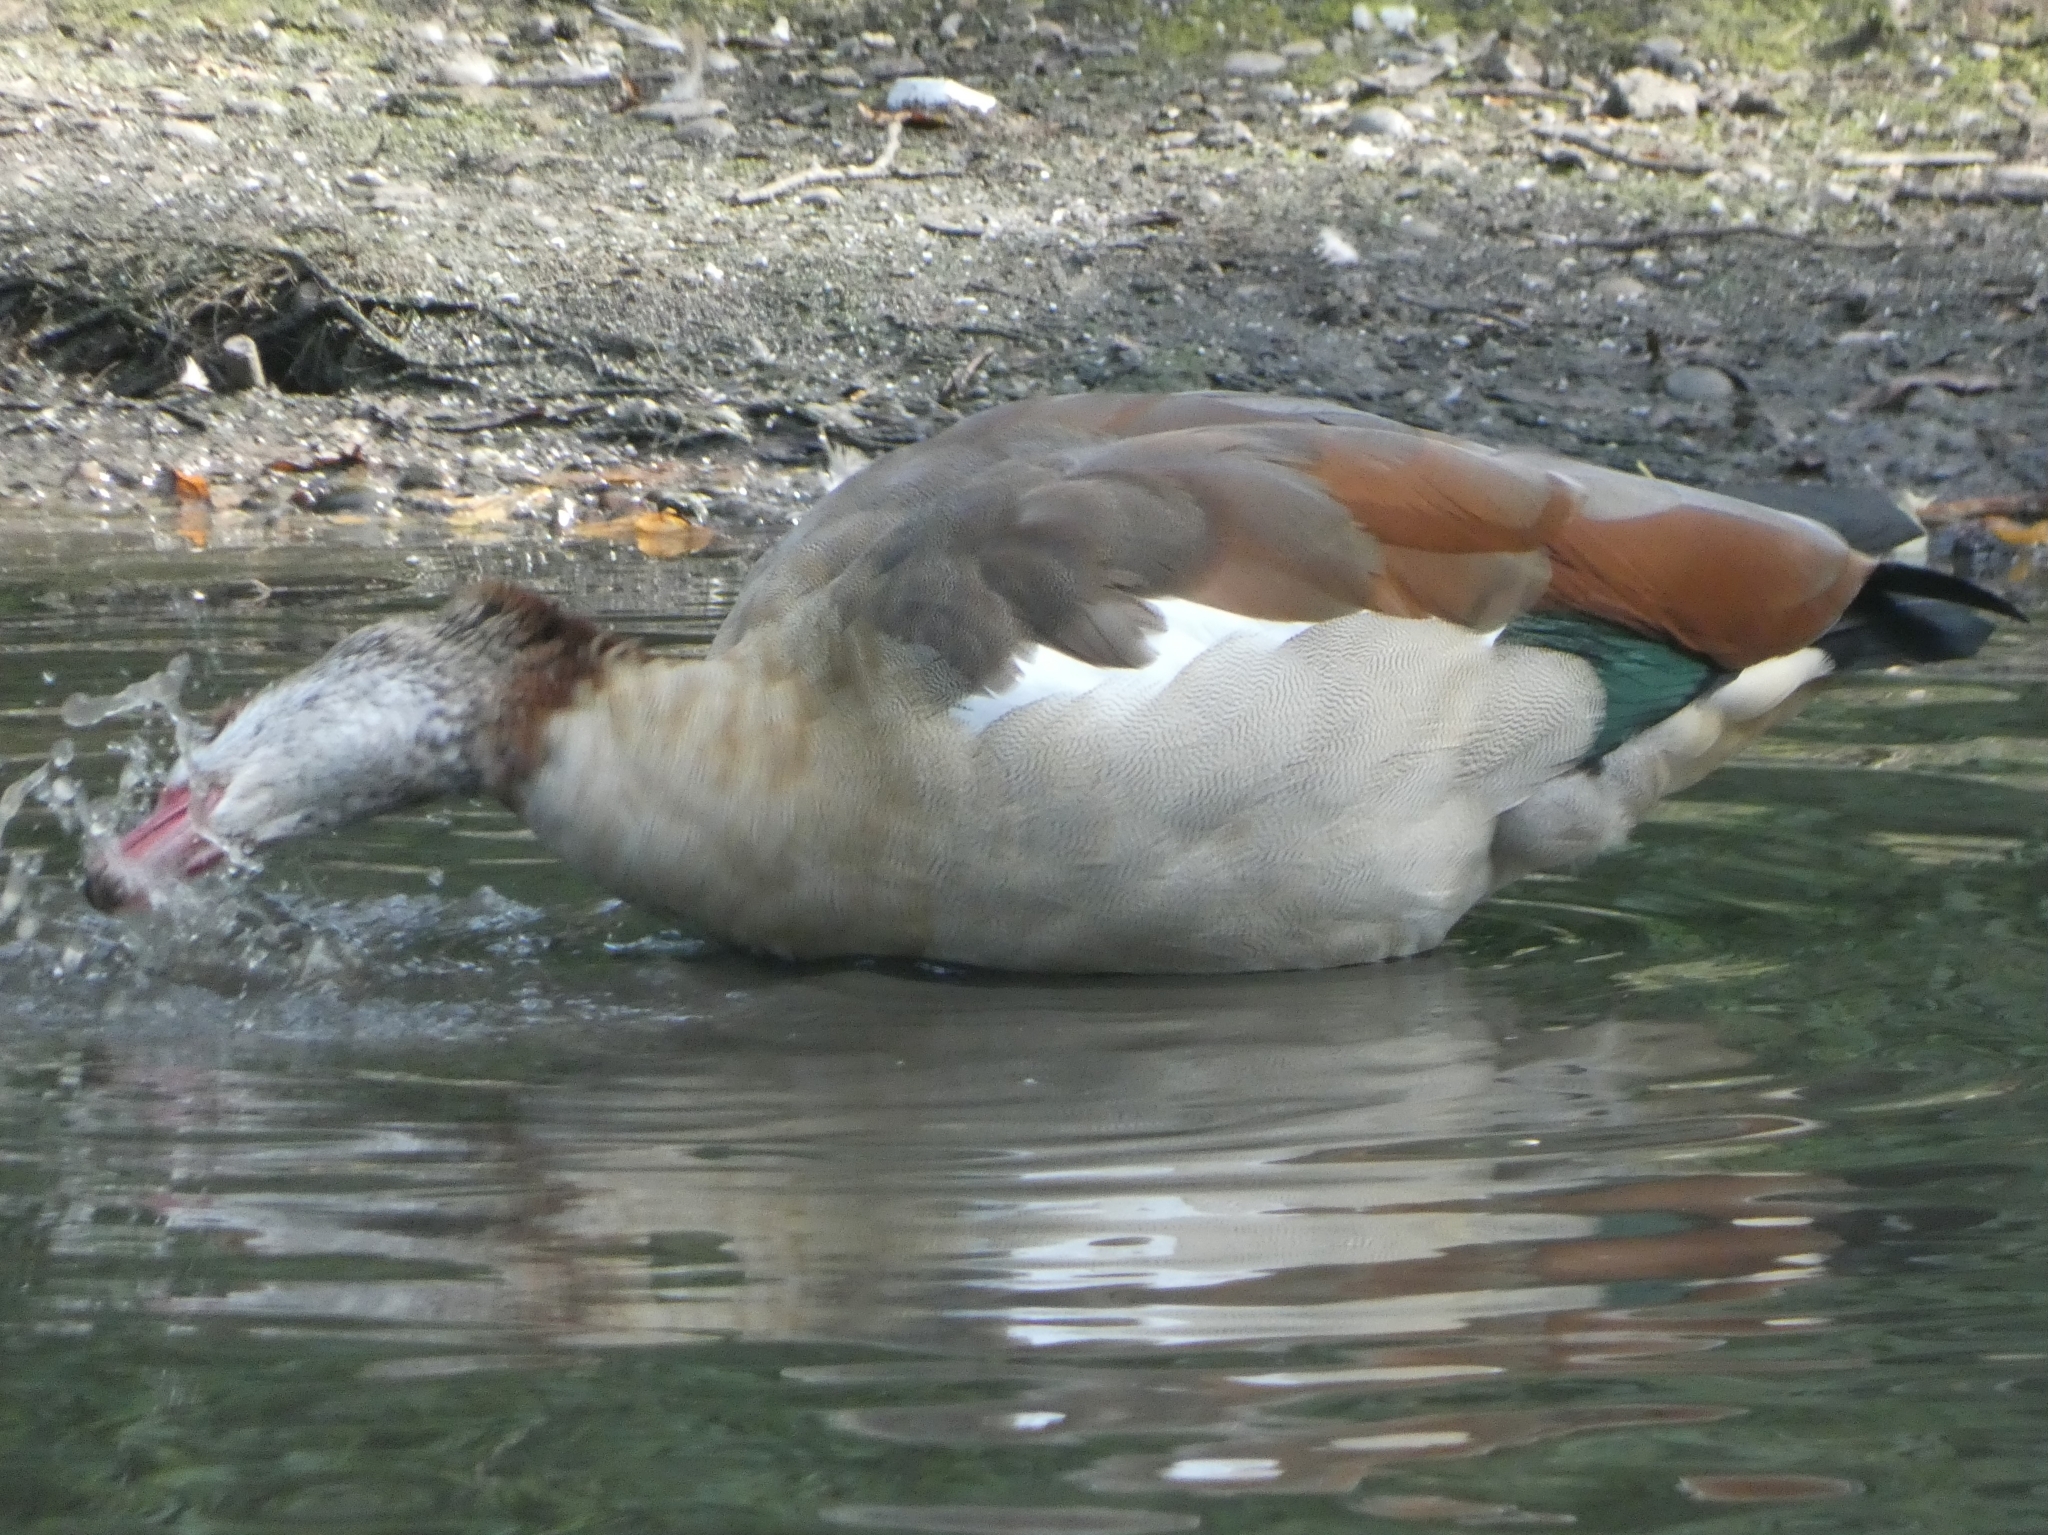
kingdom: Animalia
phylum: Chordata
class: Aves
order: Anseriformes
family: Anatidae
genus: Alopochen
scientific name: Alopochen aegyptiaca
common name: Egyptian goose
